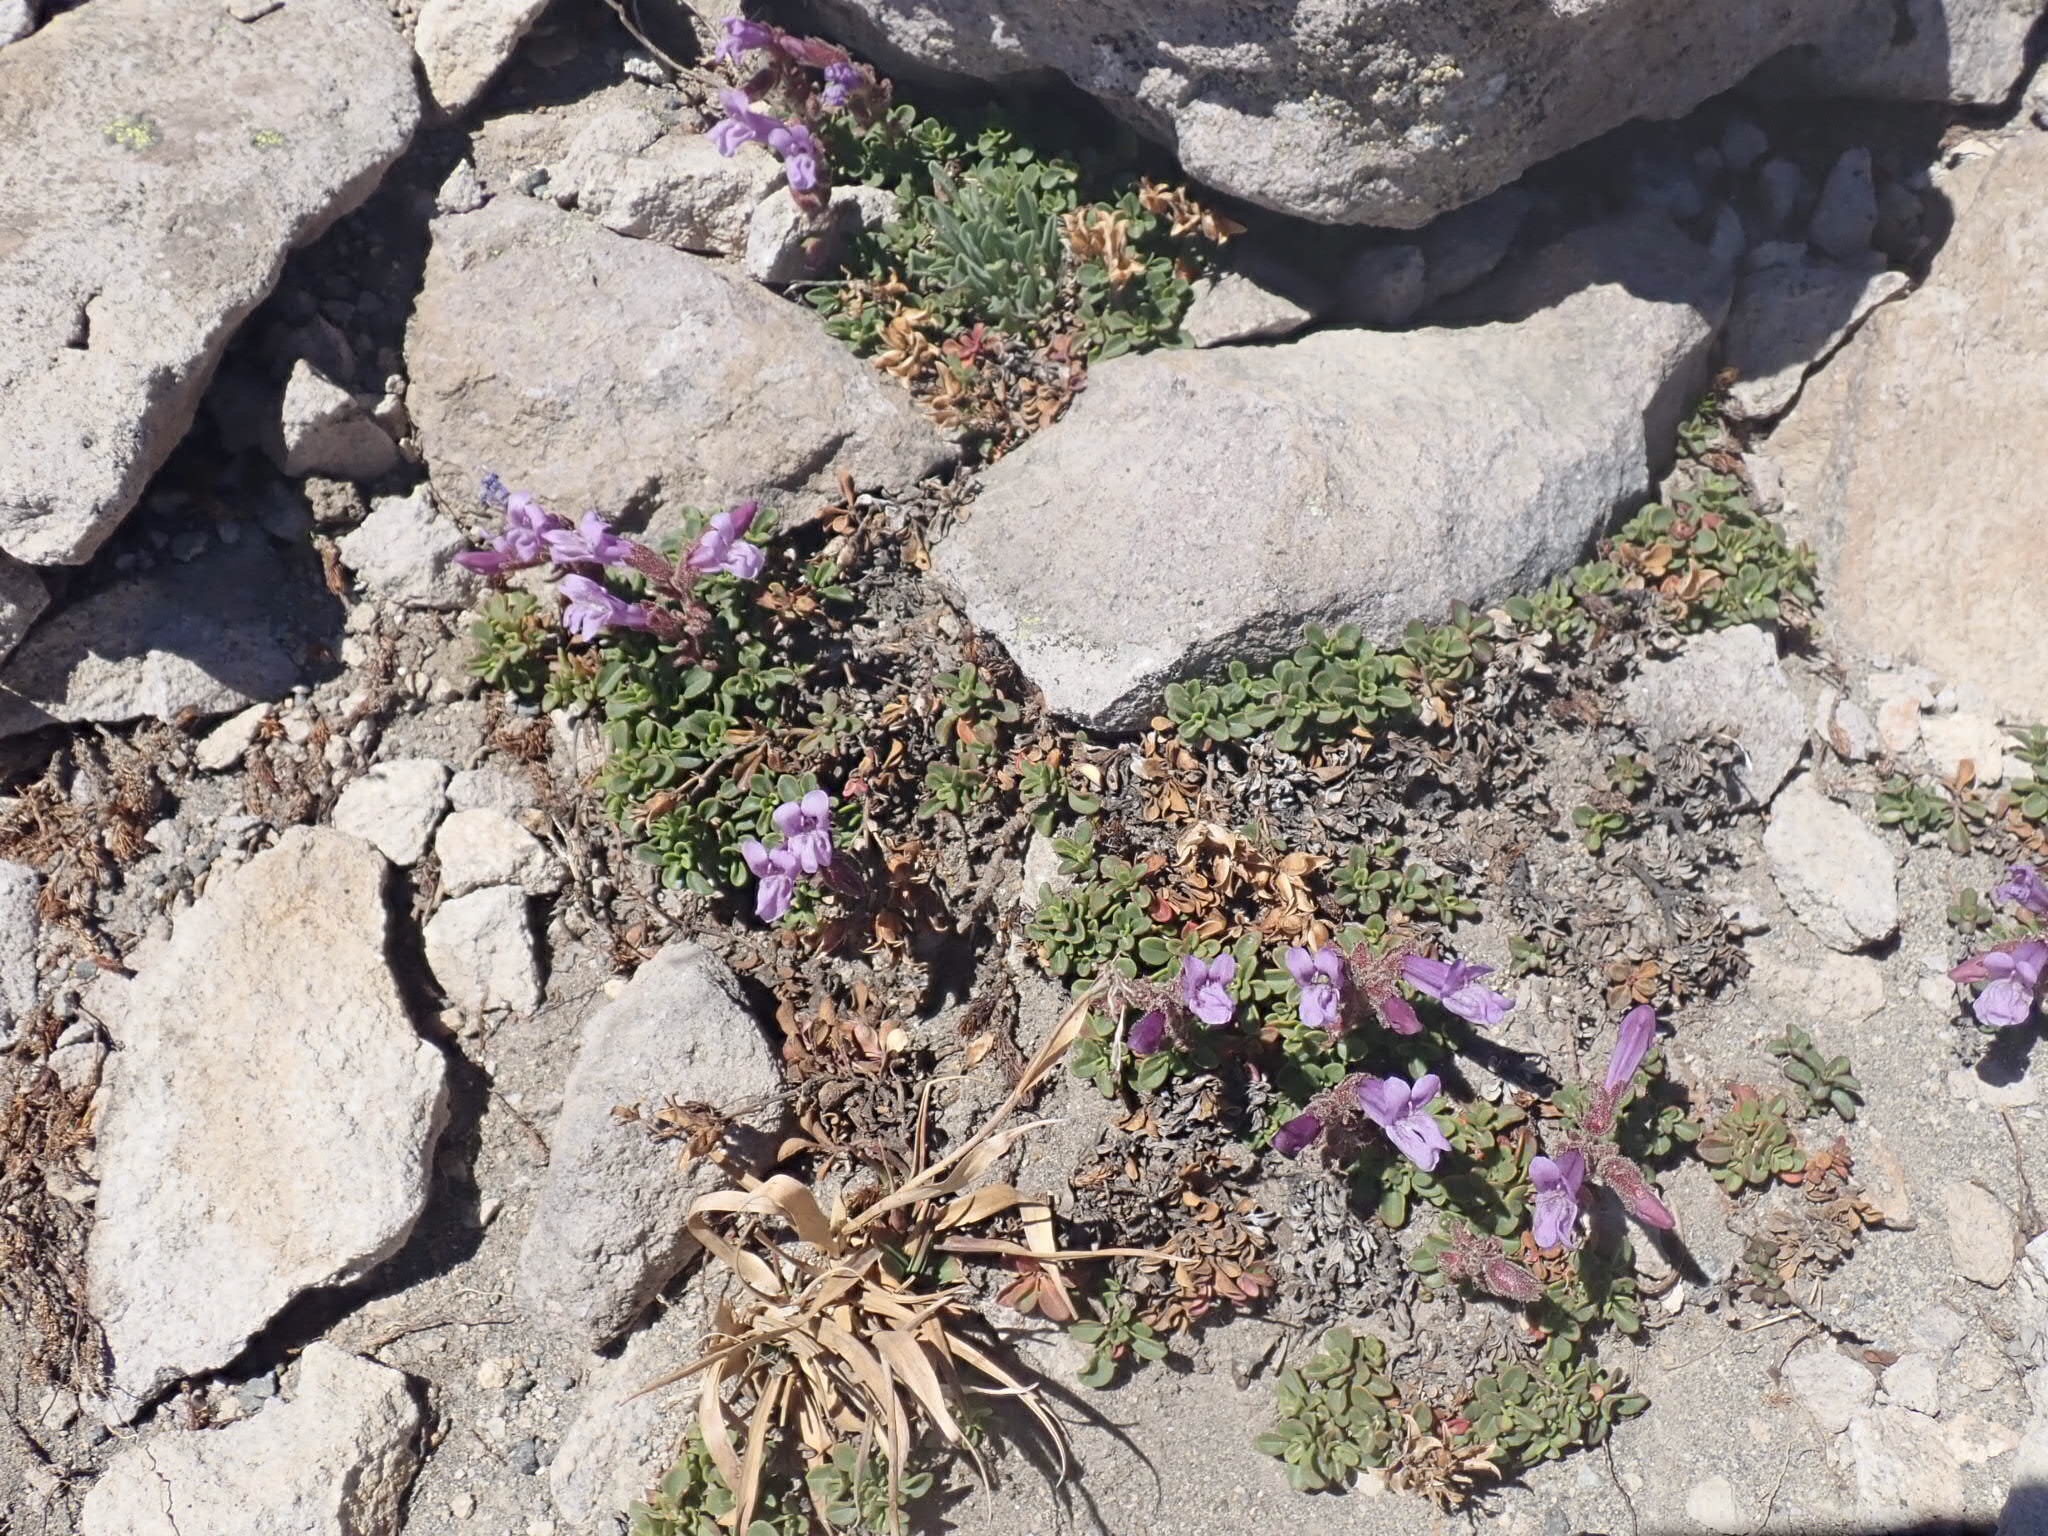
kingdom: Plantae
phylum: Tracheophyta
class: Magnoliopsida
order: Lamiales
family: Plantaginaceae
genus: Penstemon
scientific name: Penstemon davidsonii
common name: Davidson's penstemon
